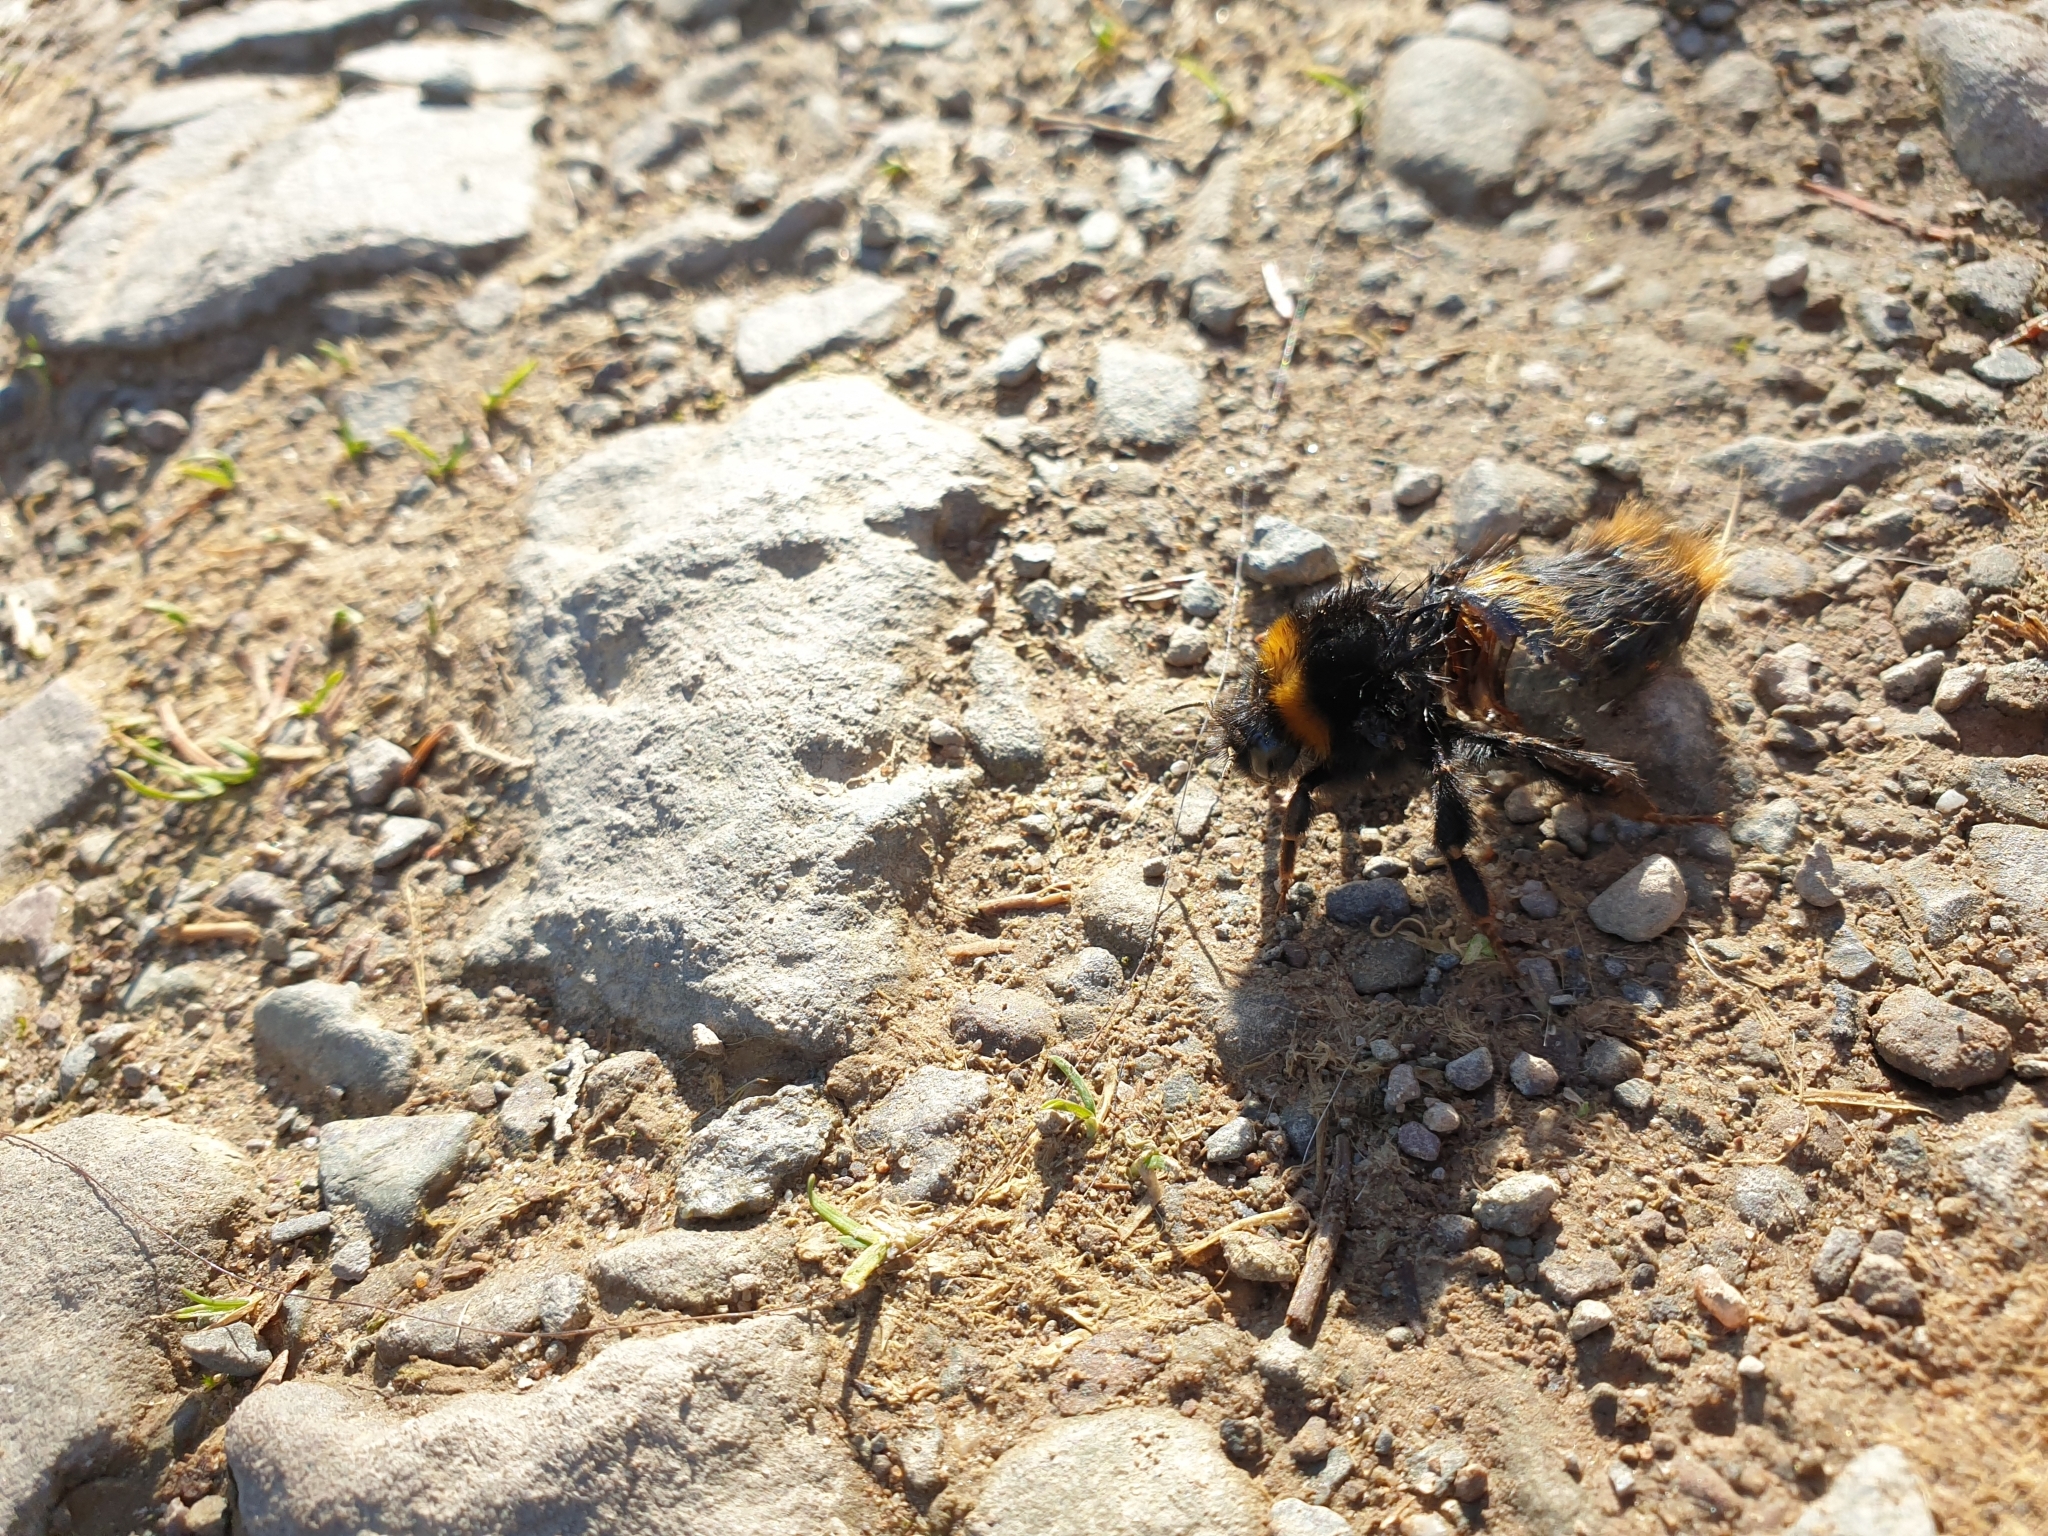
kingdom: Animalia
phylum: Arthropoda
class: Insecta
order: Hymenoptera
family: Apidae
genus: Bombus
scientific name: Bombus terrestris
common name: Buff-tailed bumblebee
